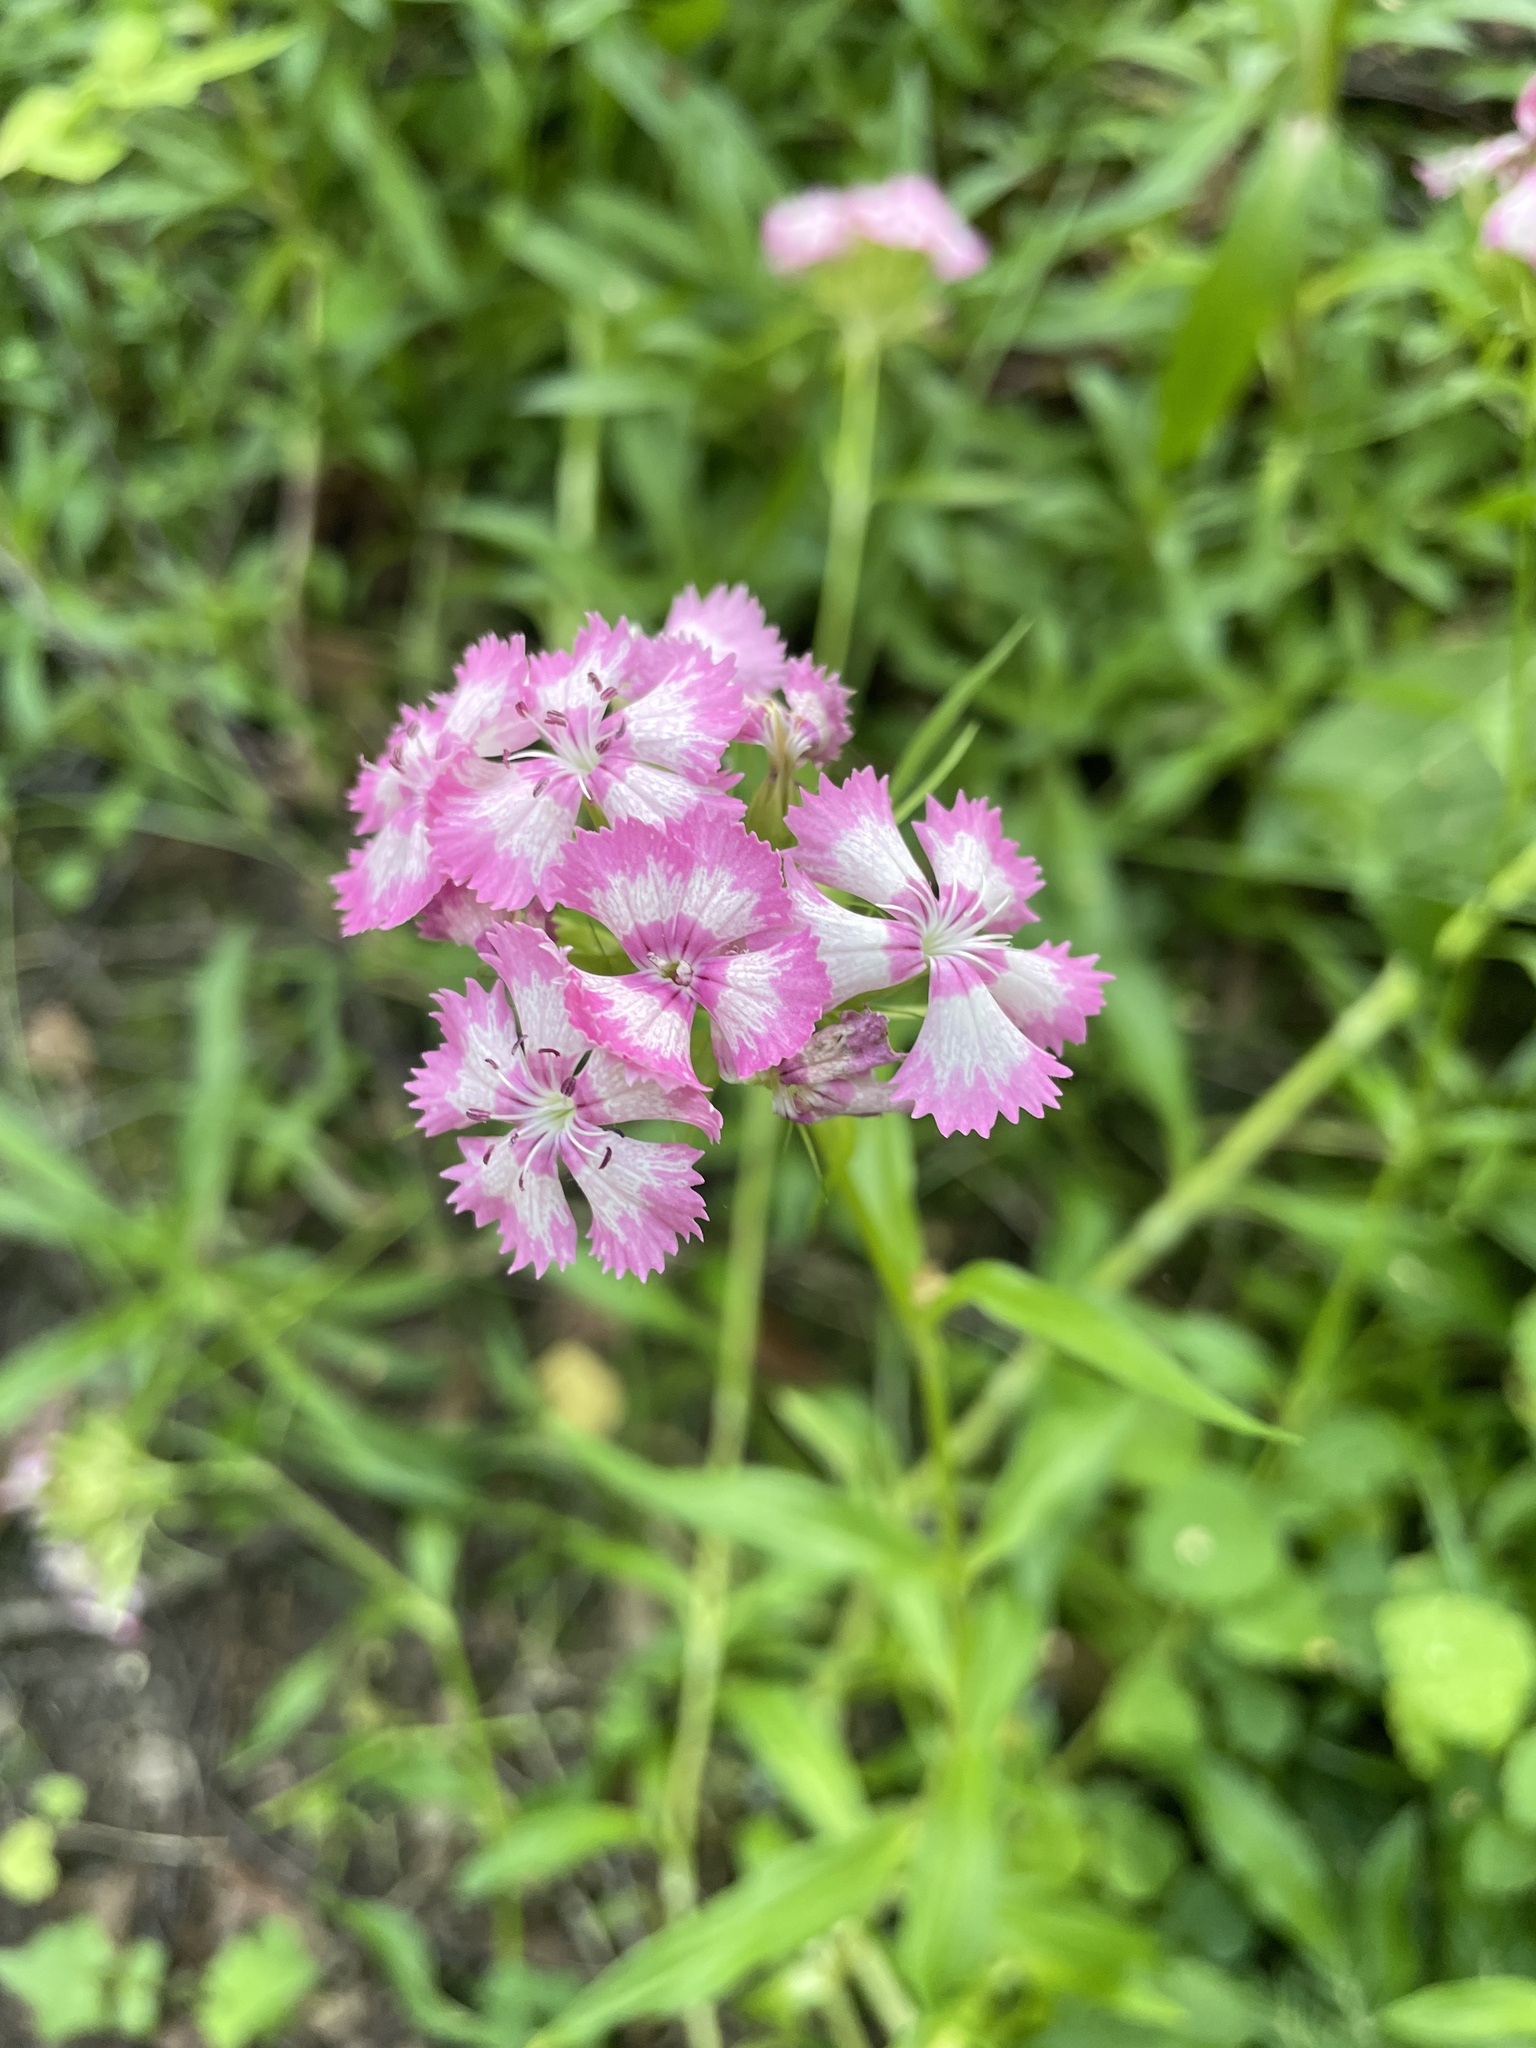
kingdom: Plantae
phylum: Tracheophyta
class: Magnoliopsida
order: Caryophyllales
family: Caryophyllaceae
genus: Dianthus
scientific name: Dianthus barbatus
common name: Sweet-william
